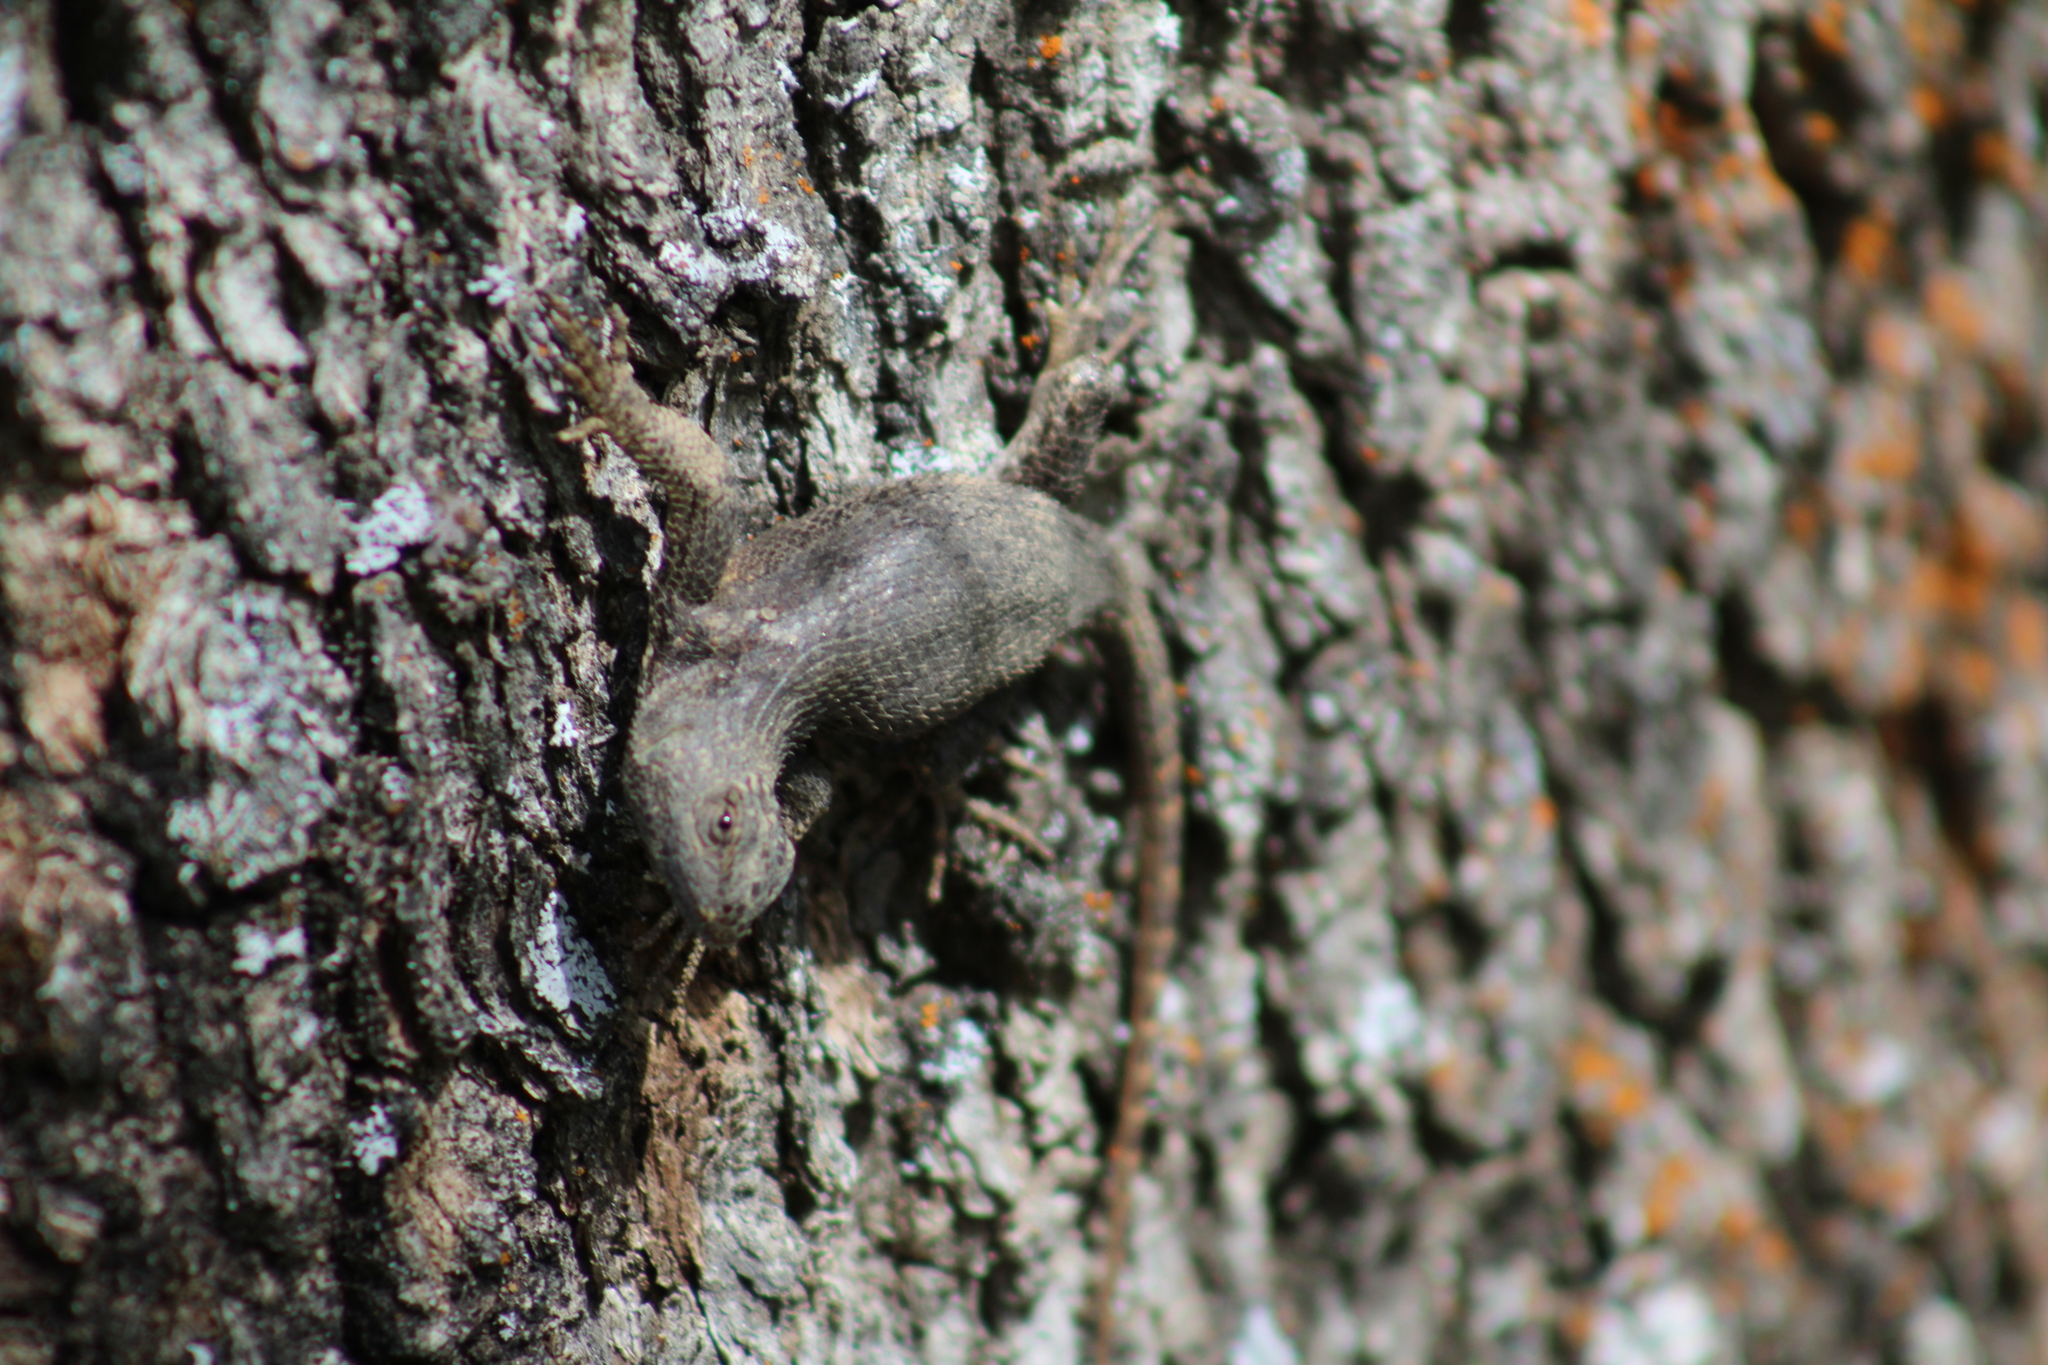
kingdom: Animalia
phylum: Chordata
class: Squamata
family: Phrynosomatidae
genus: Sceloporus
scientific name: Sceloporus occidentalis
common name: Western fence lizard
